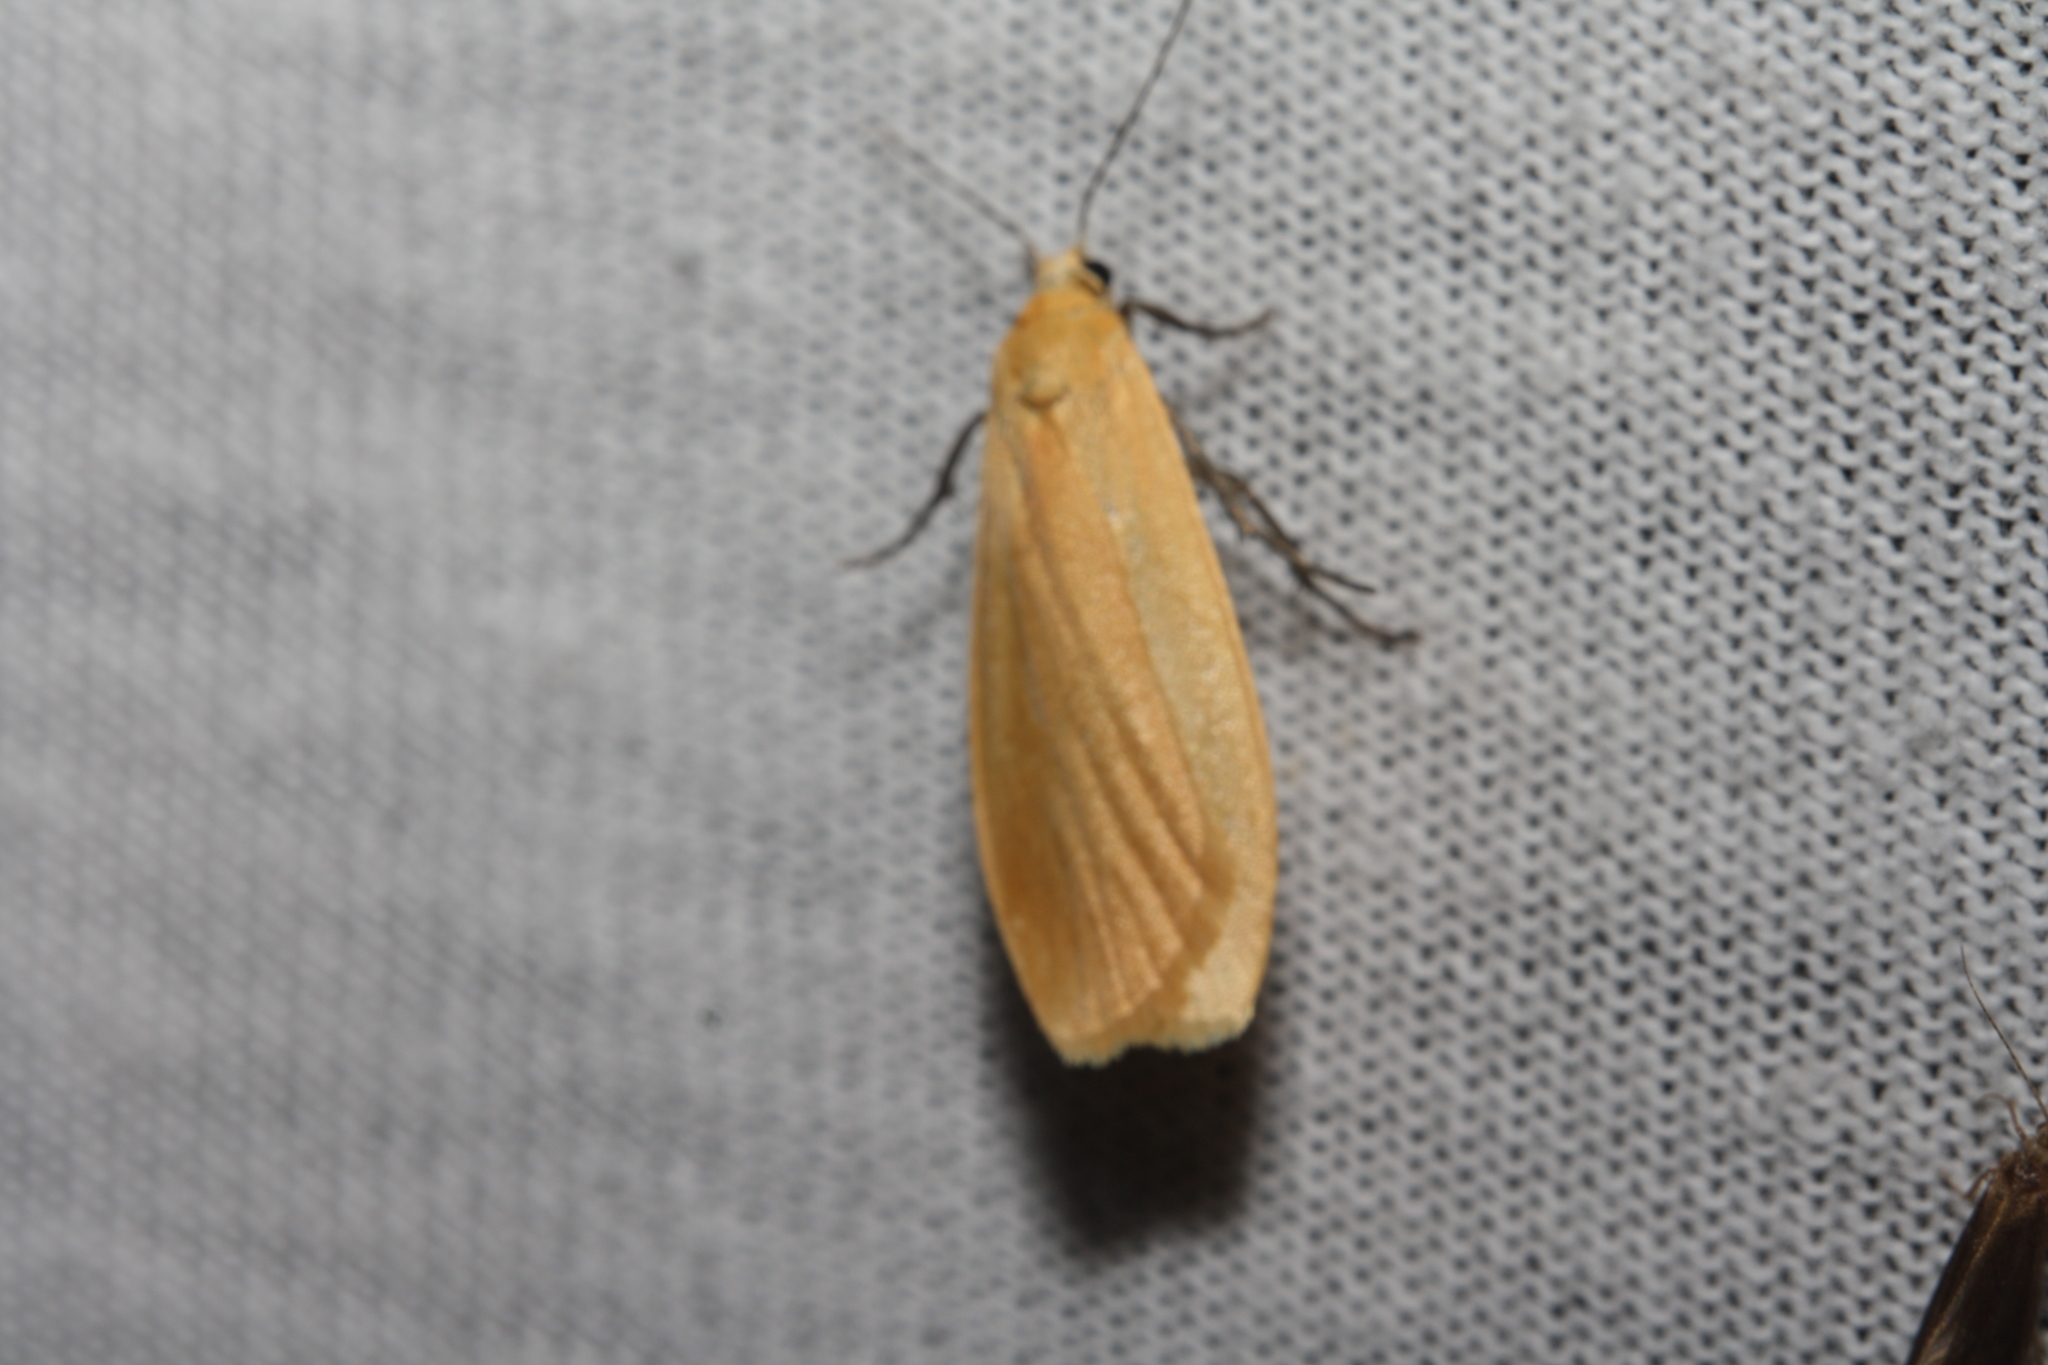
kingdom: Animalia
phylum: Arthropoda
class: Insecta
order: Lepidoptera
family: Erebidae
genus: Wittia
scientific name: Wittia sororcula
